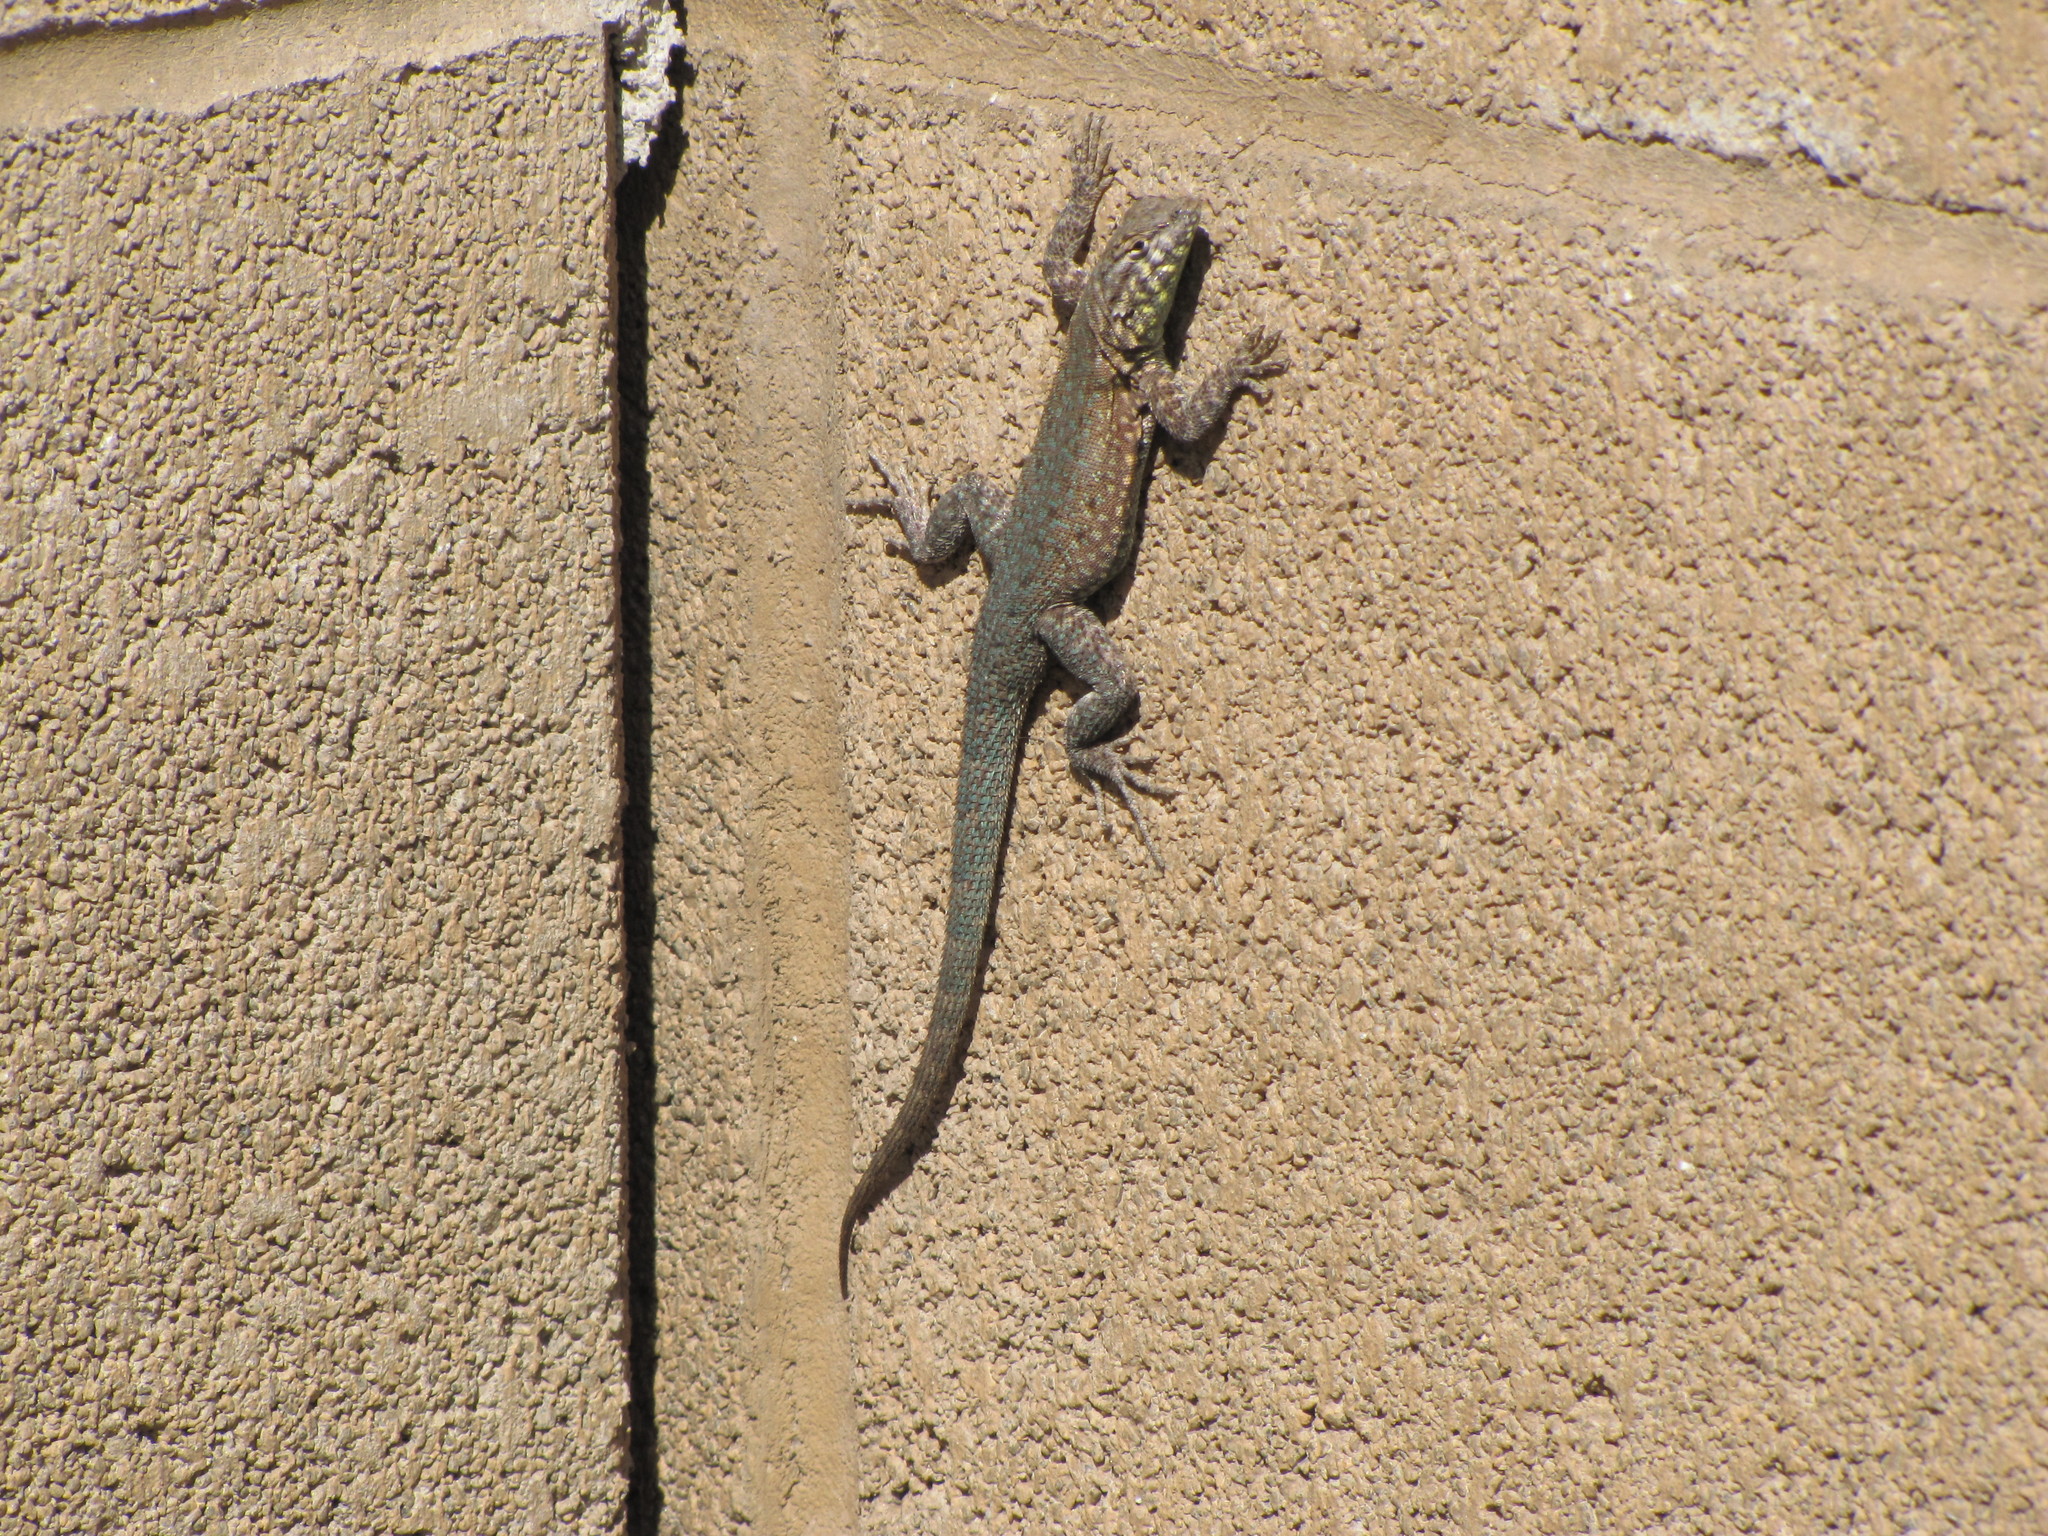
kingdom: Animalia
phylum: Chordata
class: Squamata
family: Phrynosomatidae
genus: Uta
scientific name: Uta stansburiana
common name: Side-blotched lizard
